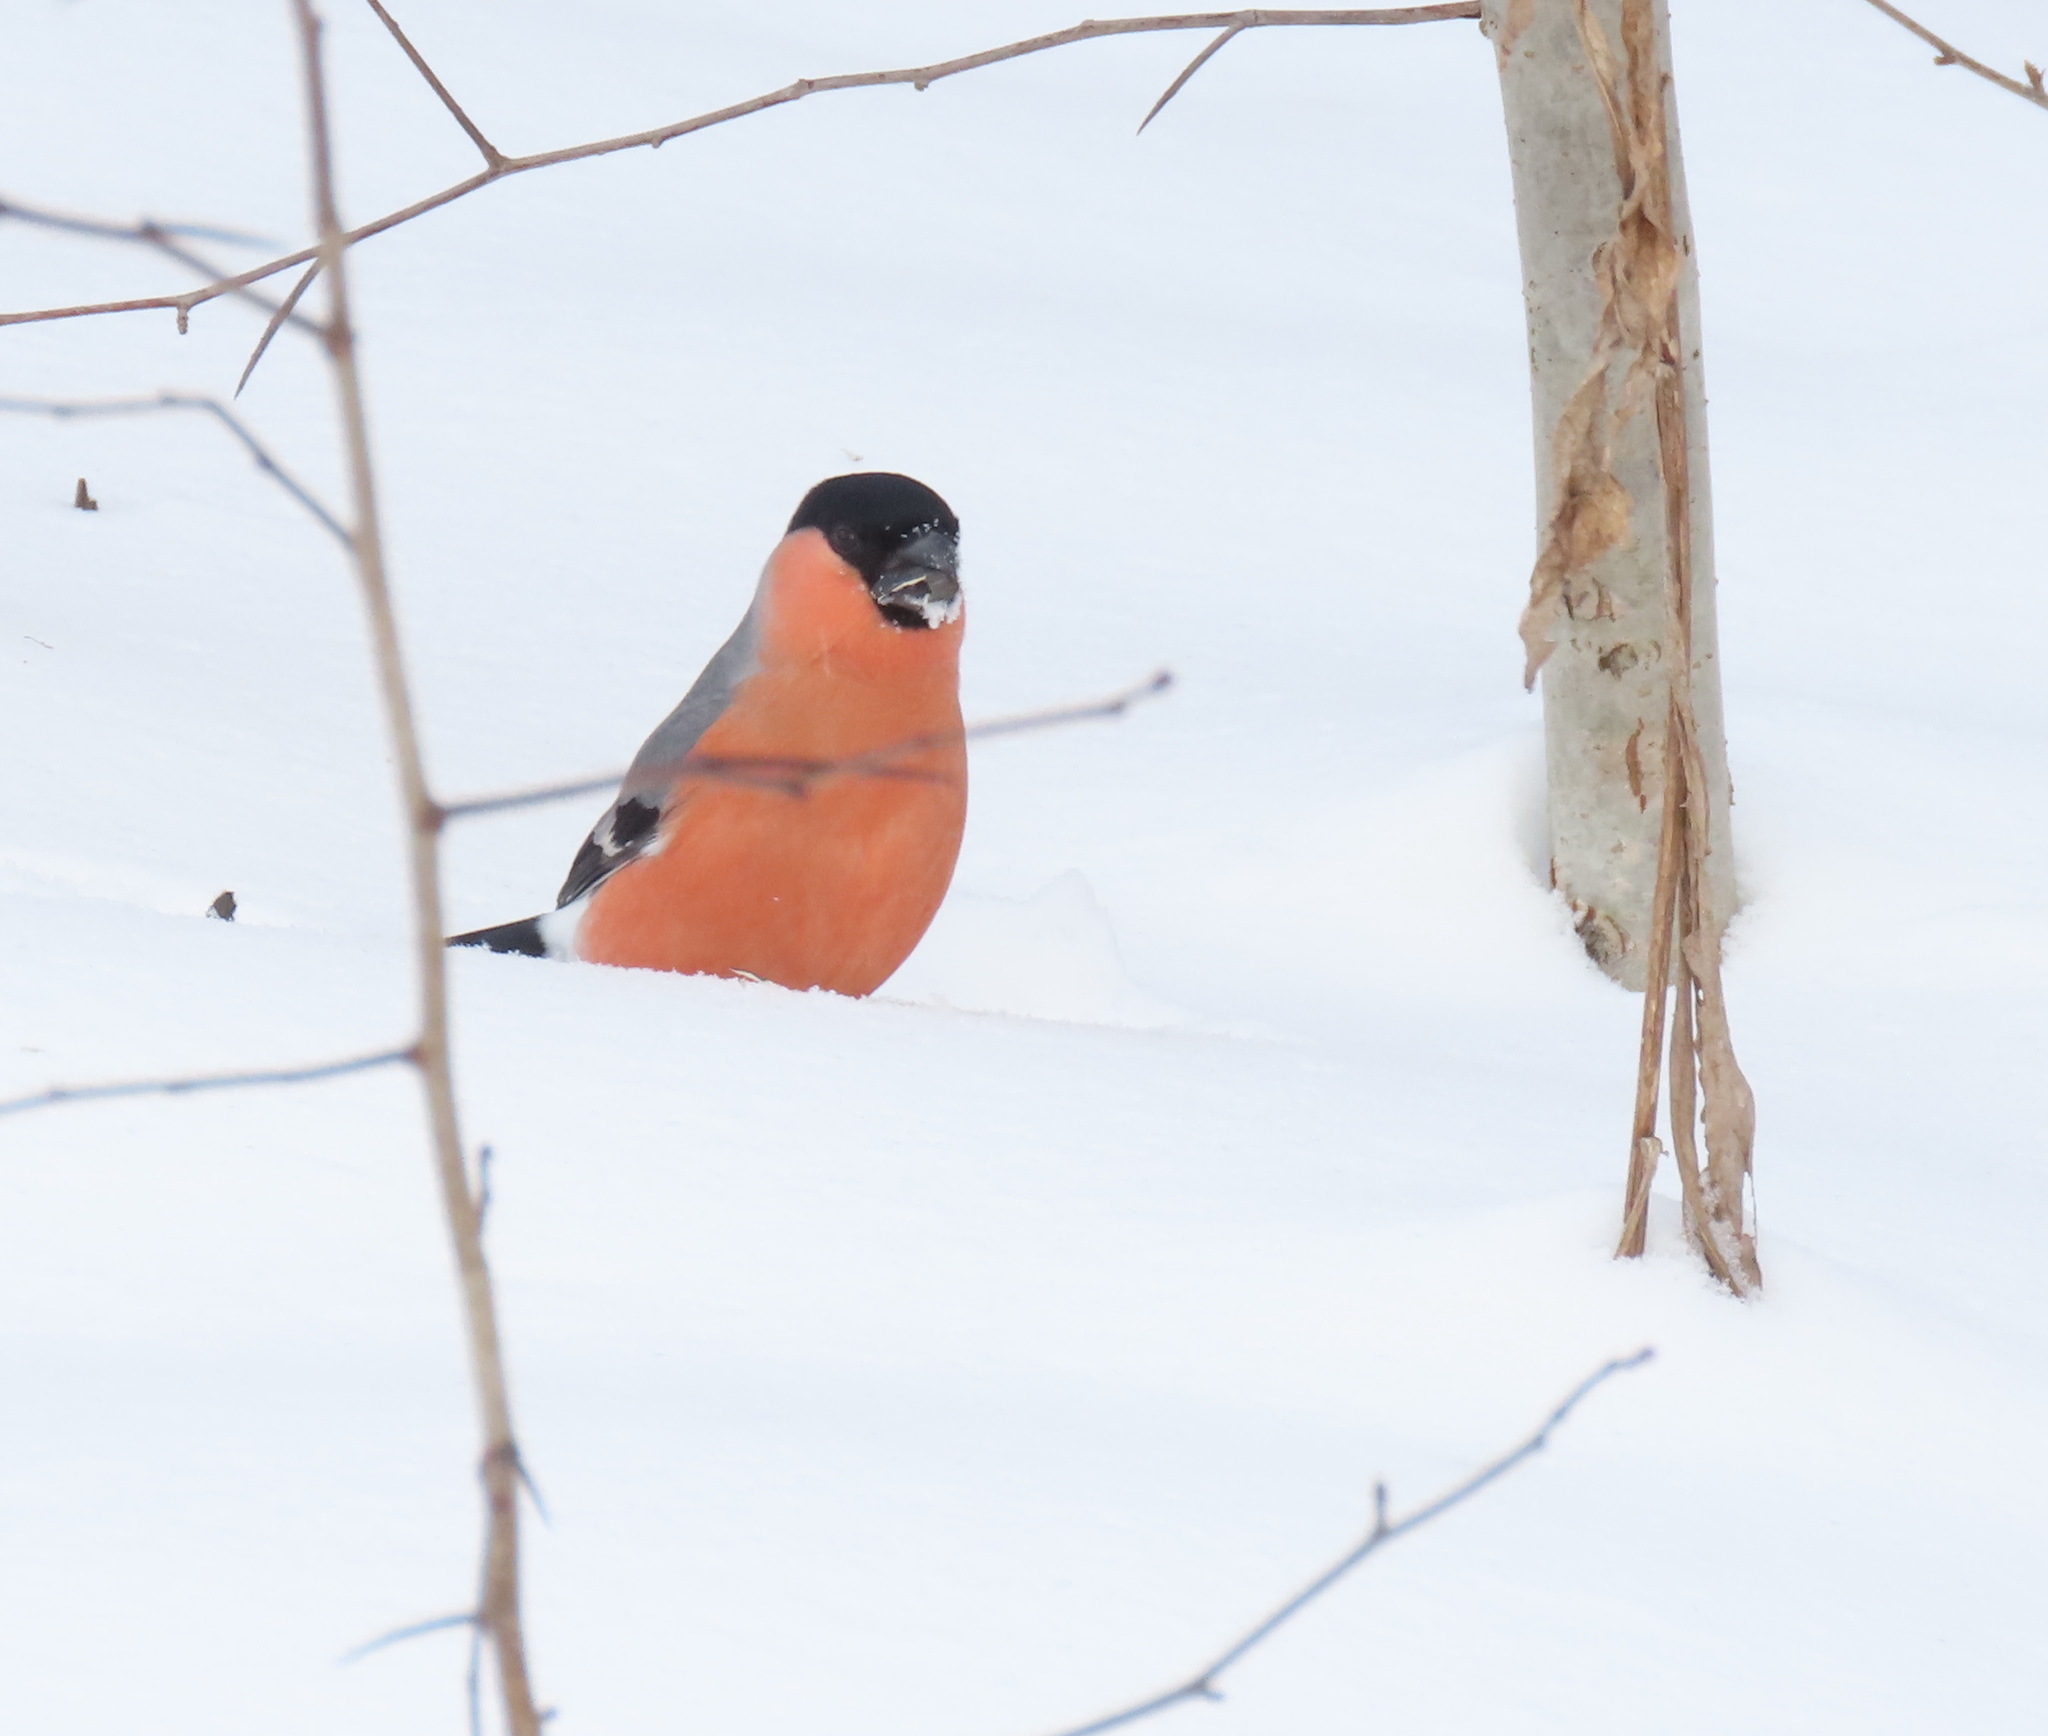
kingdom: Animalia
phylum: Chordata
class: Aves
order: Passeriformes
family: Fringillidae
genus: Pyrrhula
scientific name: Pyrrhula pyrrhula
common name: Eurasian bullfinch
